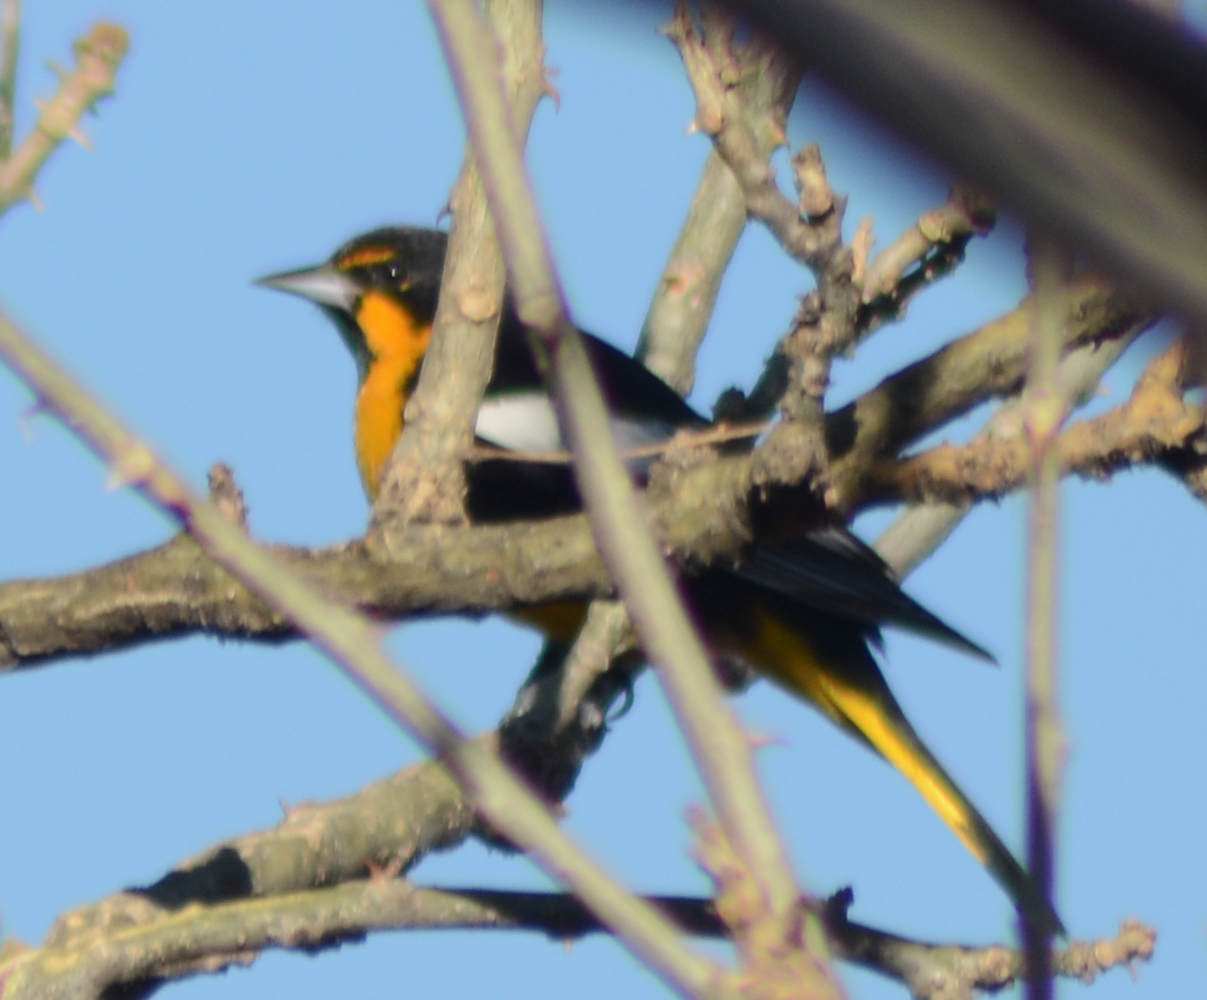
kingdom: Animalia
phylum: Chordata
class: Aves
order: Passeriformes
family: Icteridae
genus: Icterus
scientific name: Icterus abeillei
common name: Black-backed oriole
